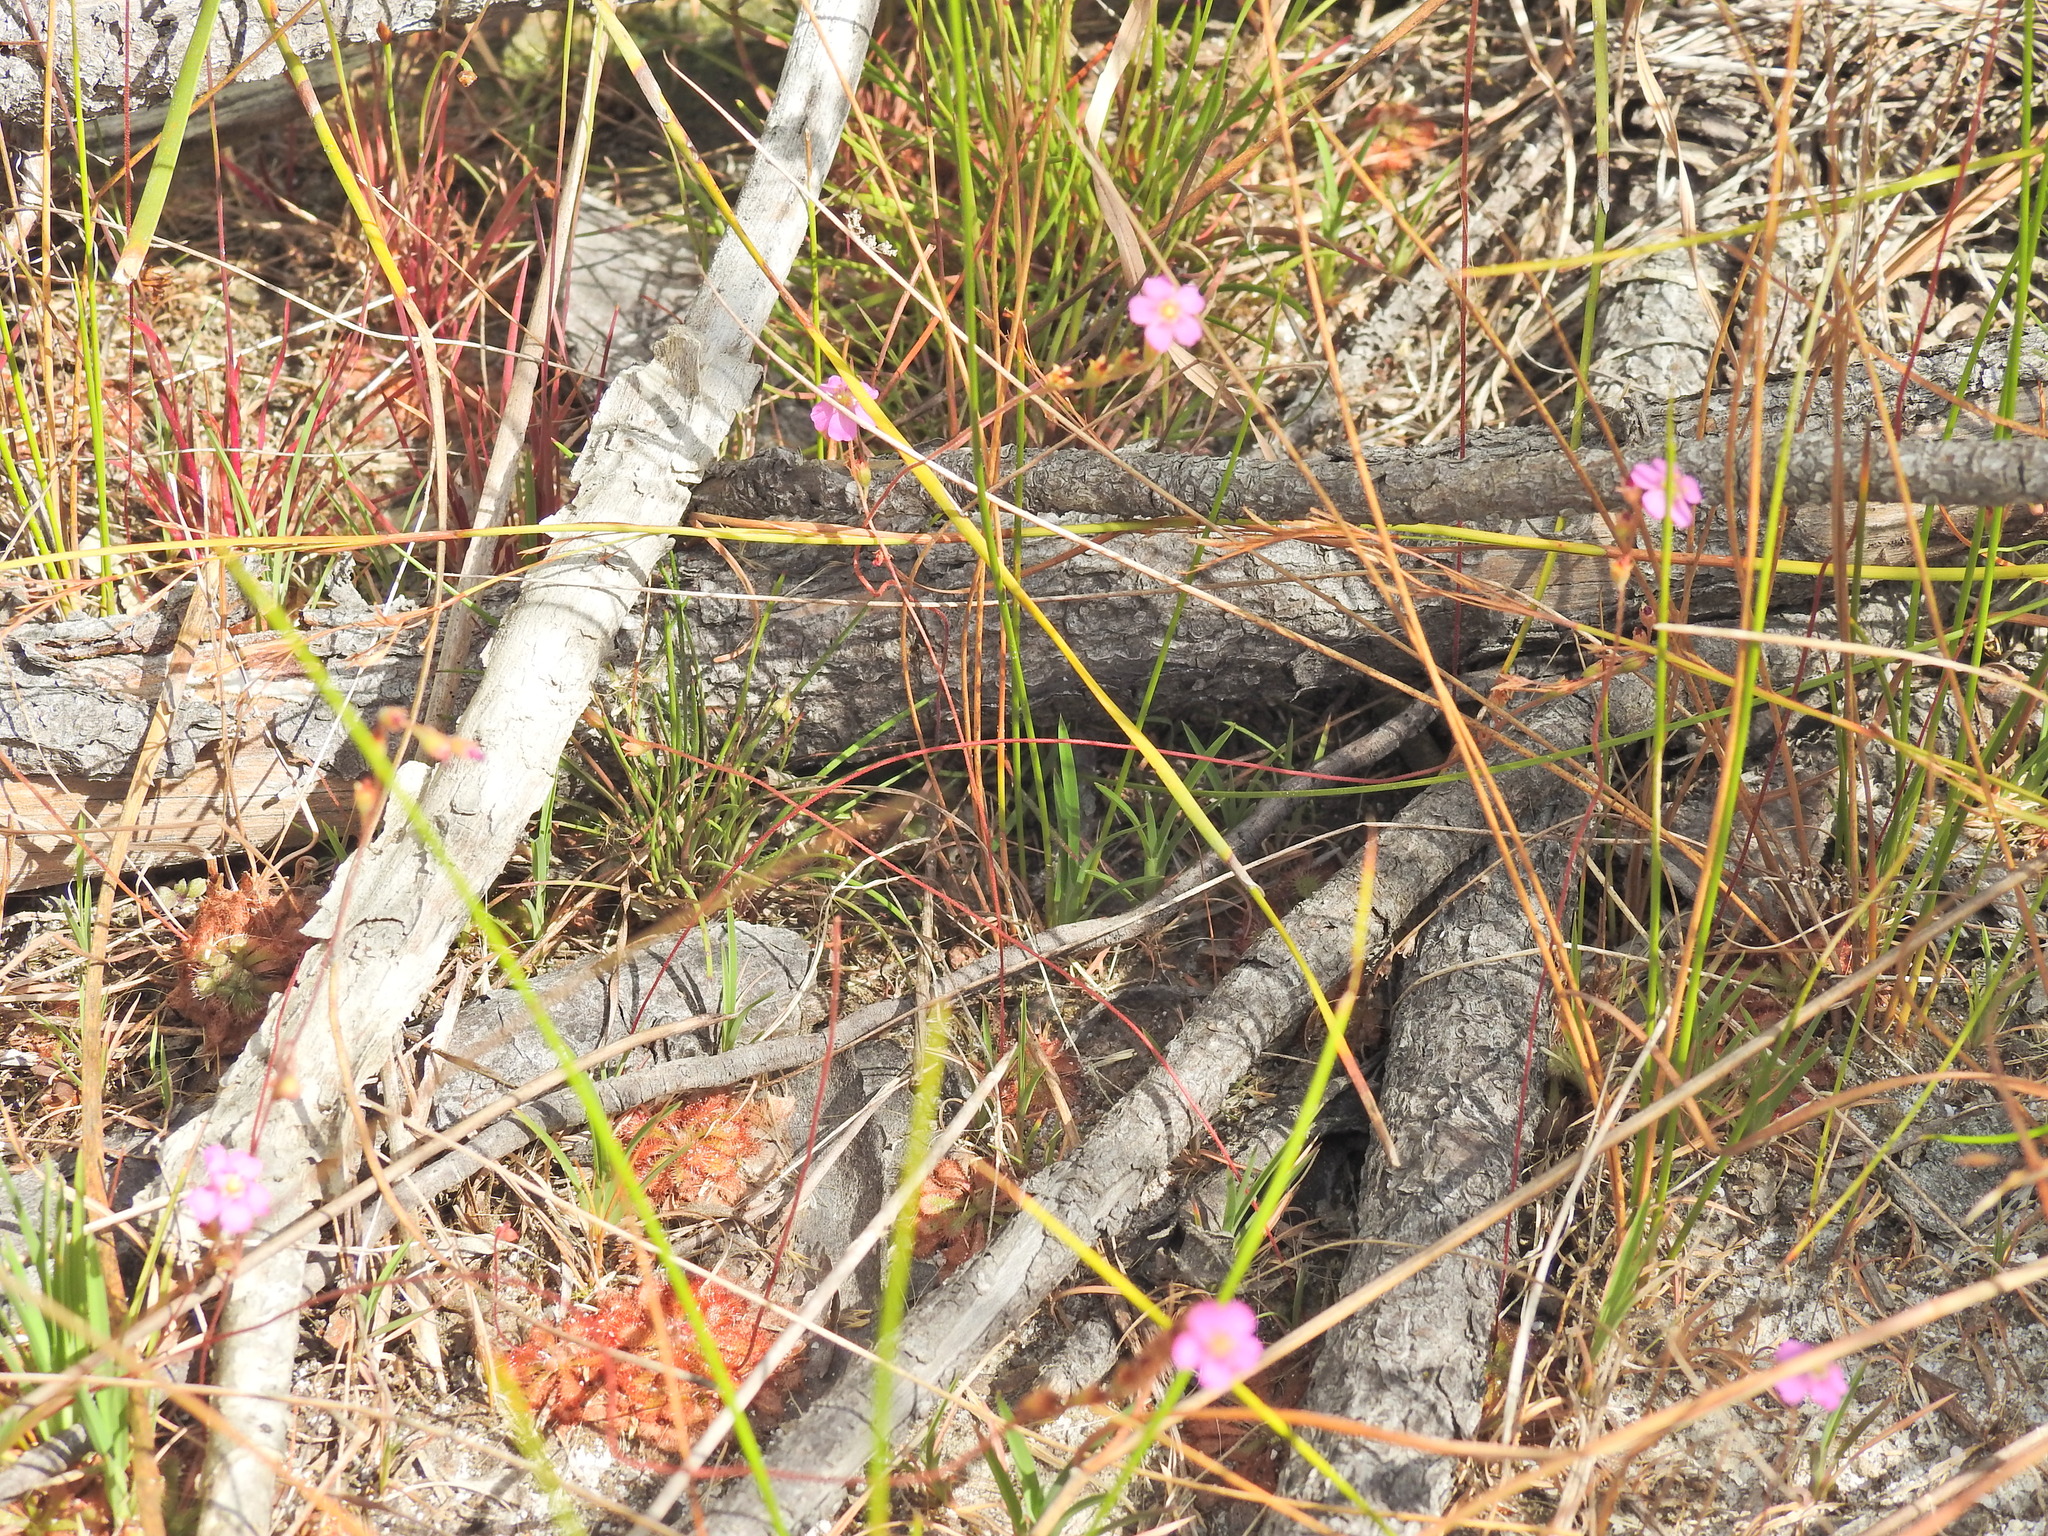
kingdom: Plantae
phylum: Tracheophyta
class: Magnoliopsida
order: Caryophyllales
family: Droseraceae
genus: Drosera
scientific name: Drosera spatulata
